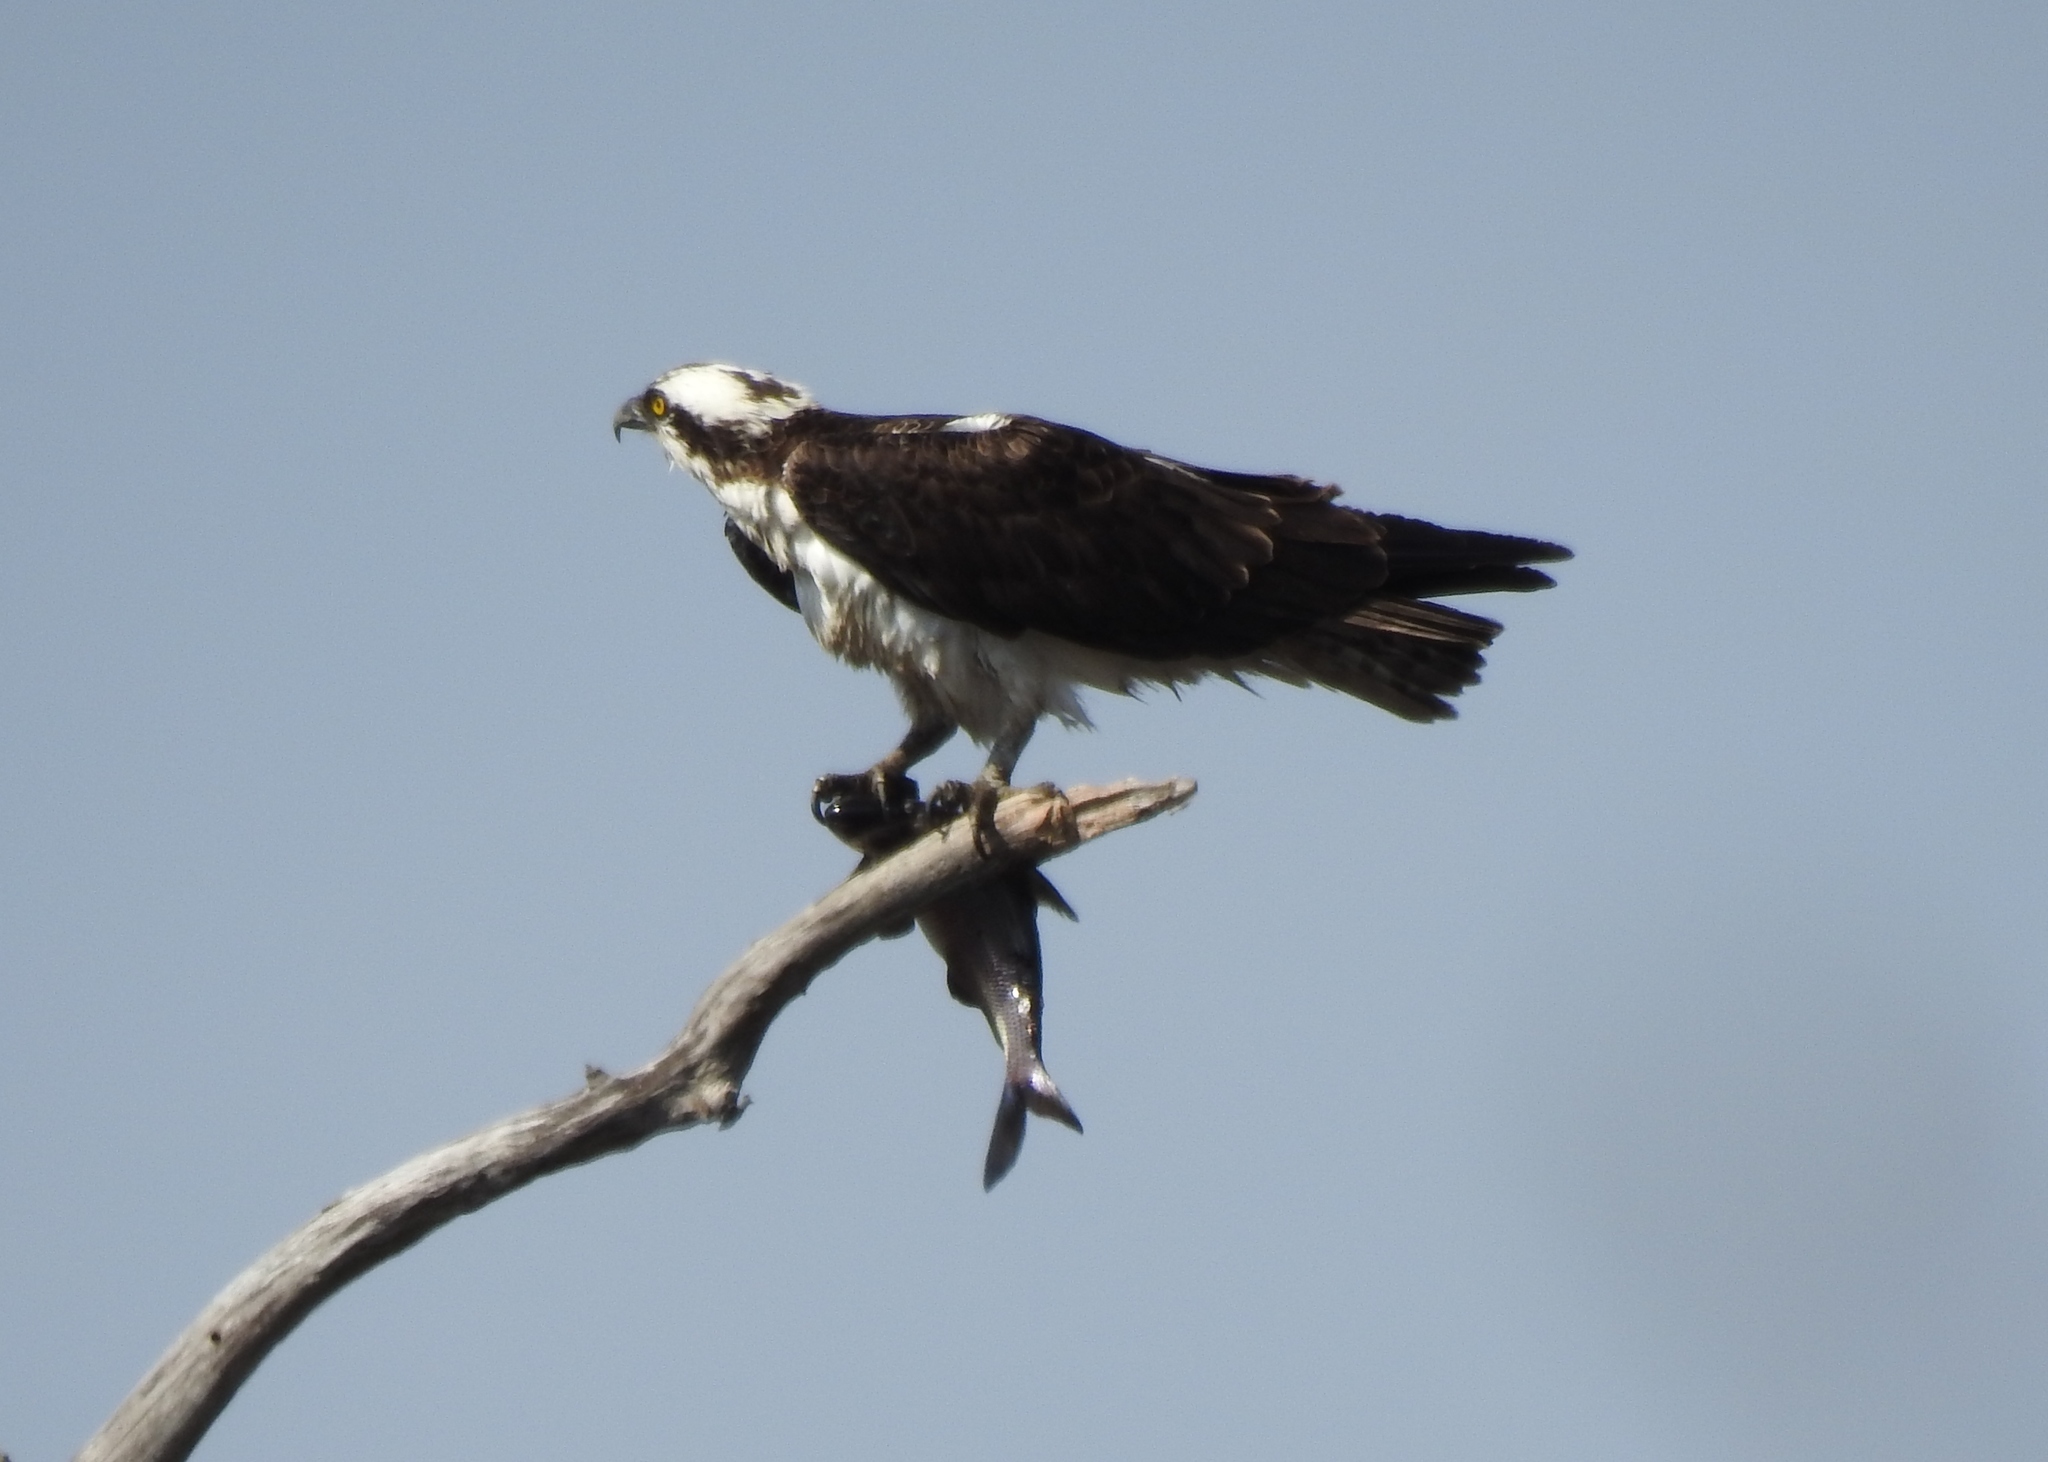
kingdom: Animalia
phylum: Chordata
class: Aves
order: Accipitriformes
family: Pandionidae
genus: Pandion
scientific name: Pandion haliaetus
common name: Osprey
